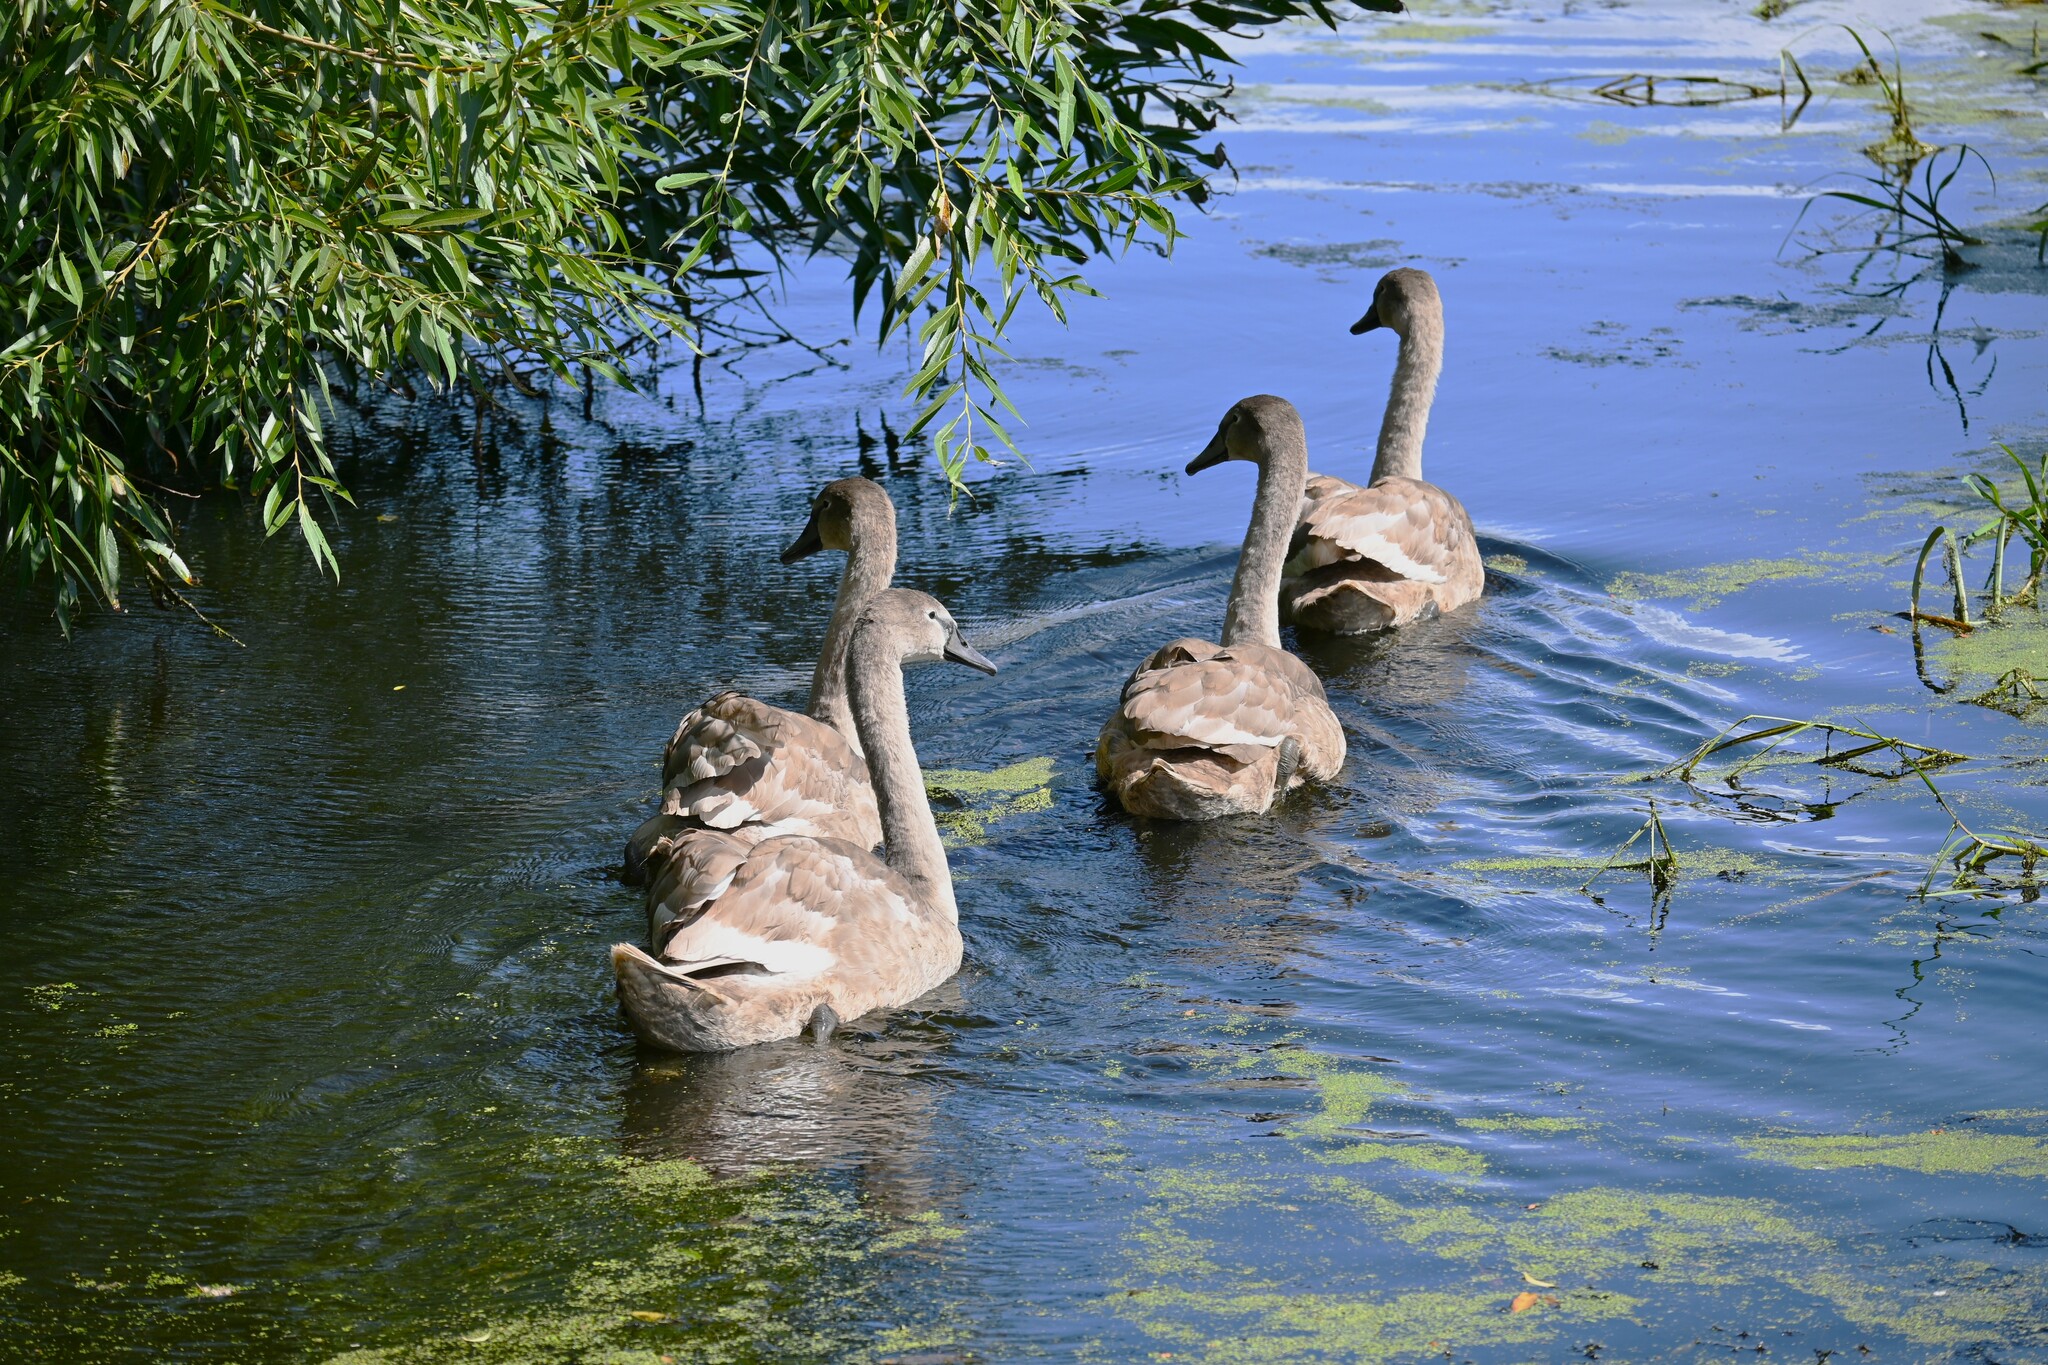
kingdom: Animalia
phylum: Chordata
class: Aves
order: Anseriformes
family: Anatidae
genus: Cygnus
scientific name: Cygnus olor
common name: Mute swan
